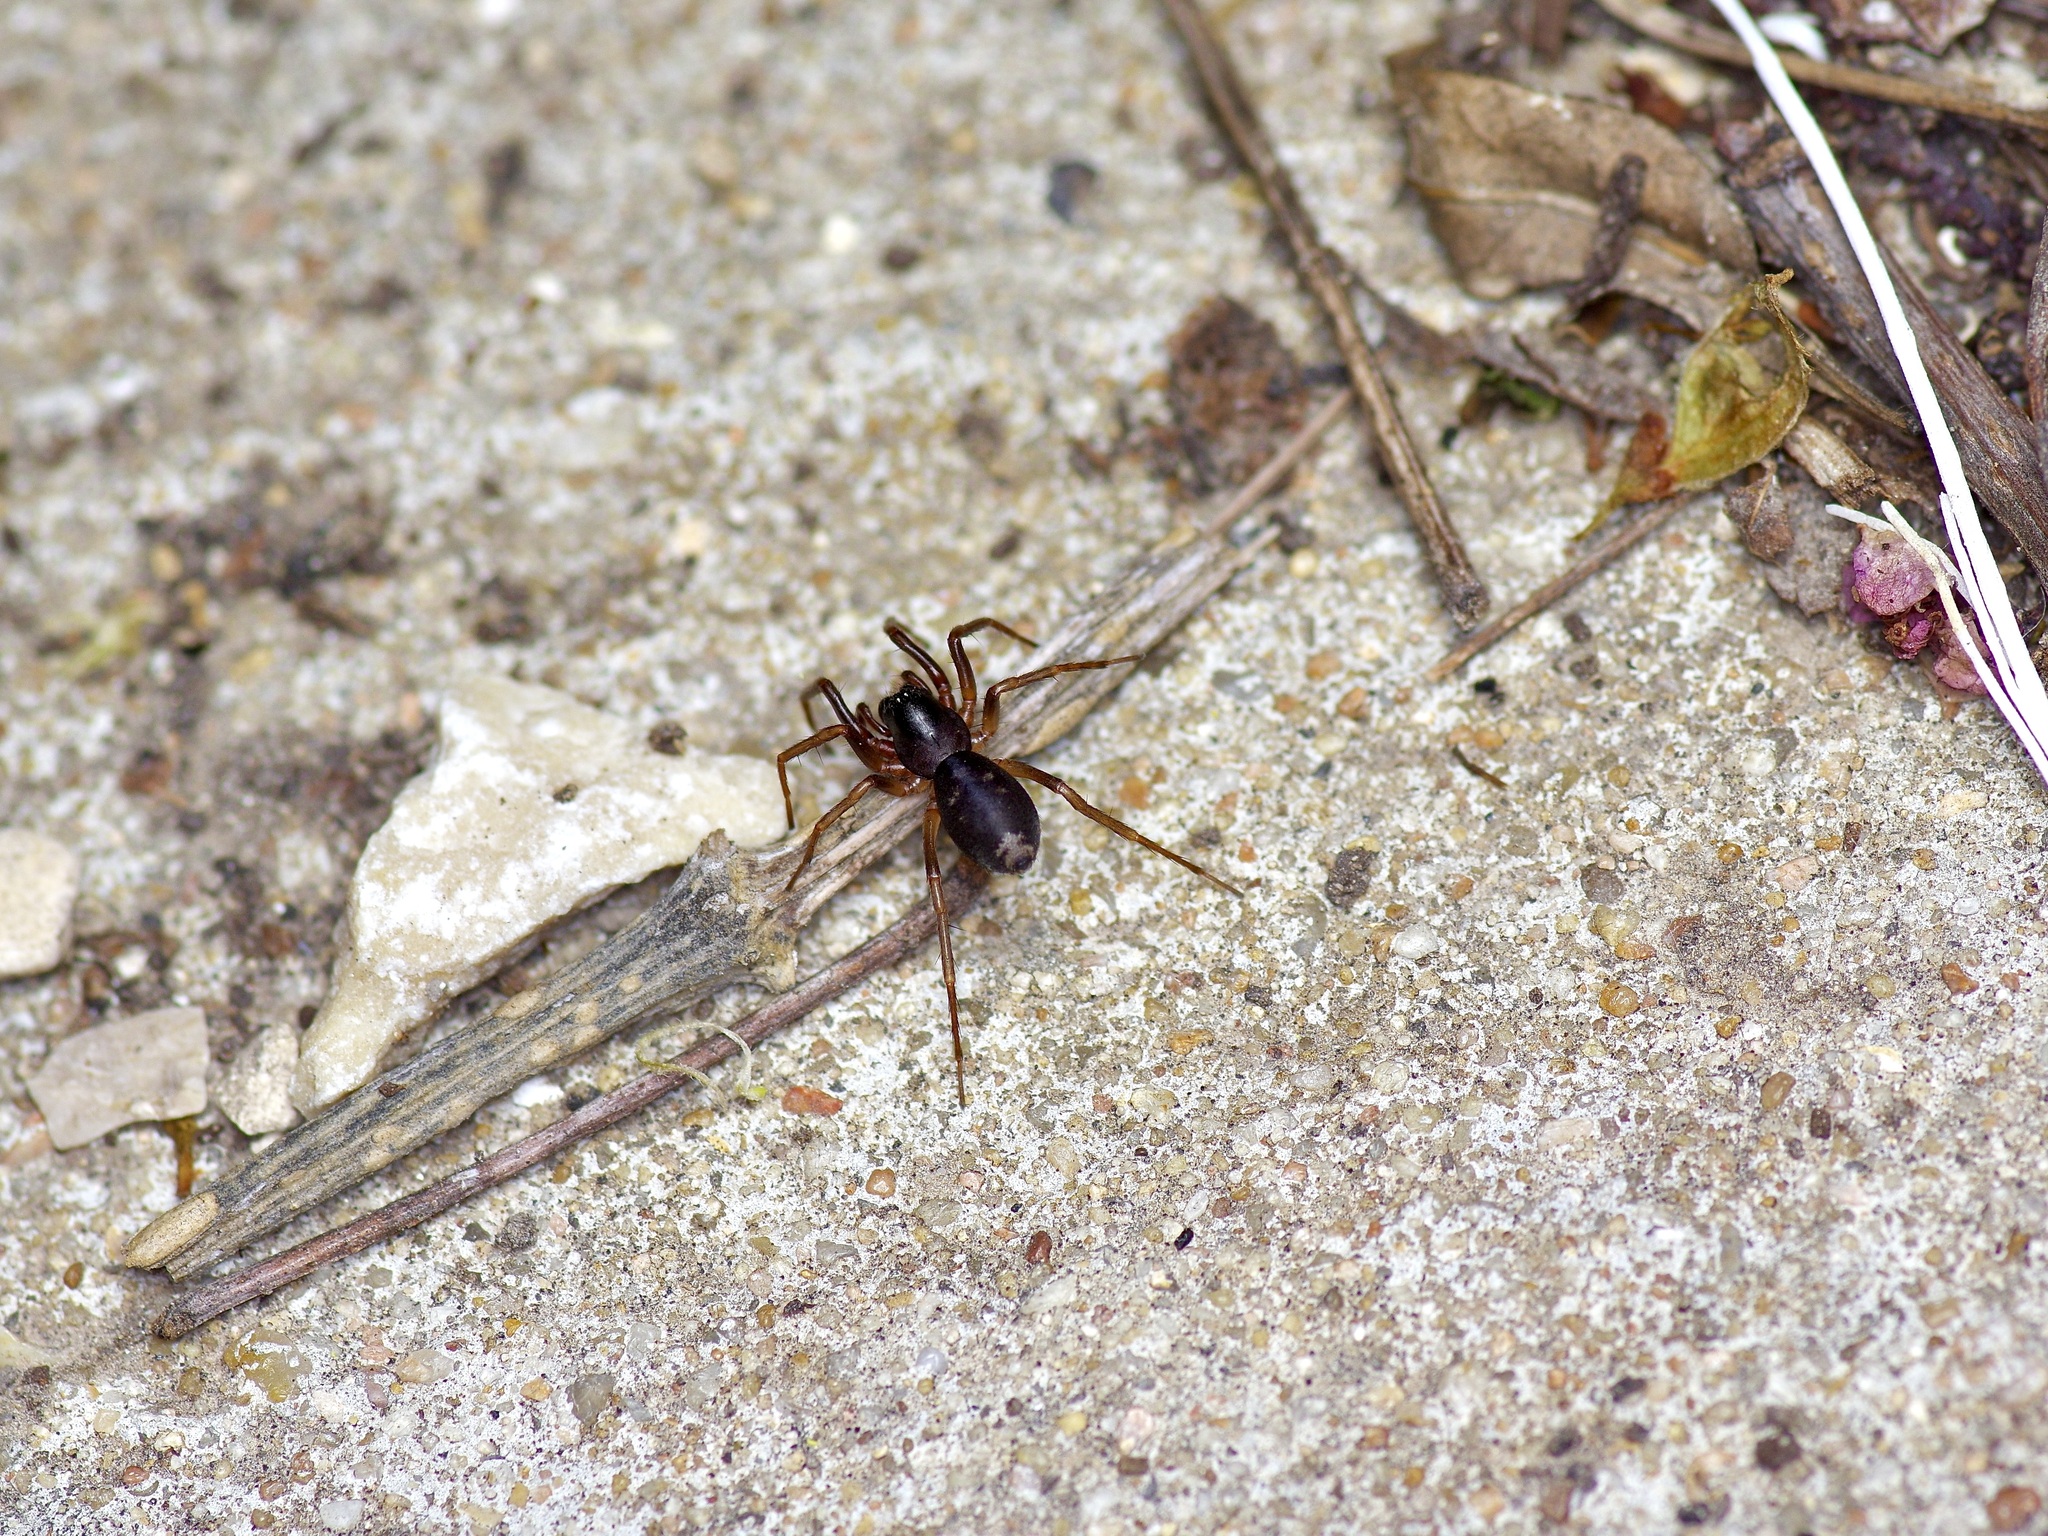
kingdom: Animalia
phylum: Arthropoda
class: Arachnida
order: Araneae
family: Corinnidae
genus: Falconina
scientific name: Falconina gracilis
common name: Antmimic spider
